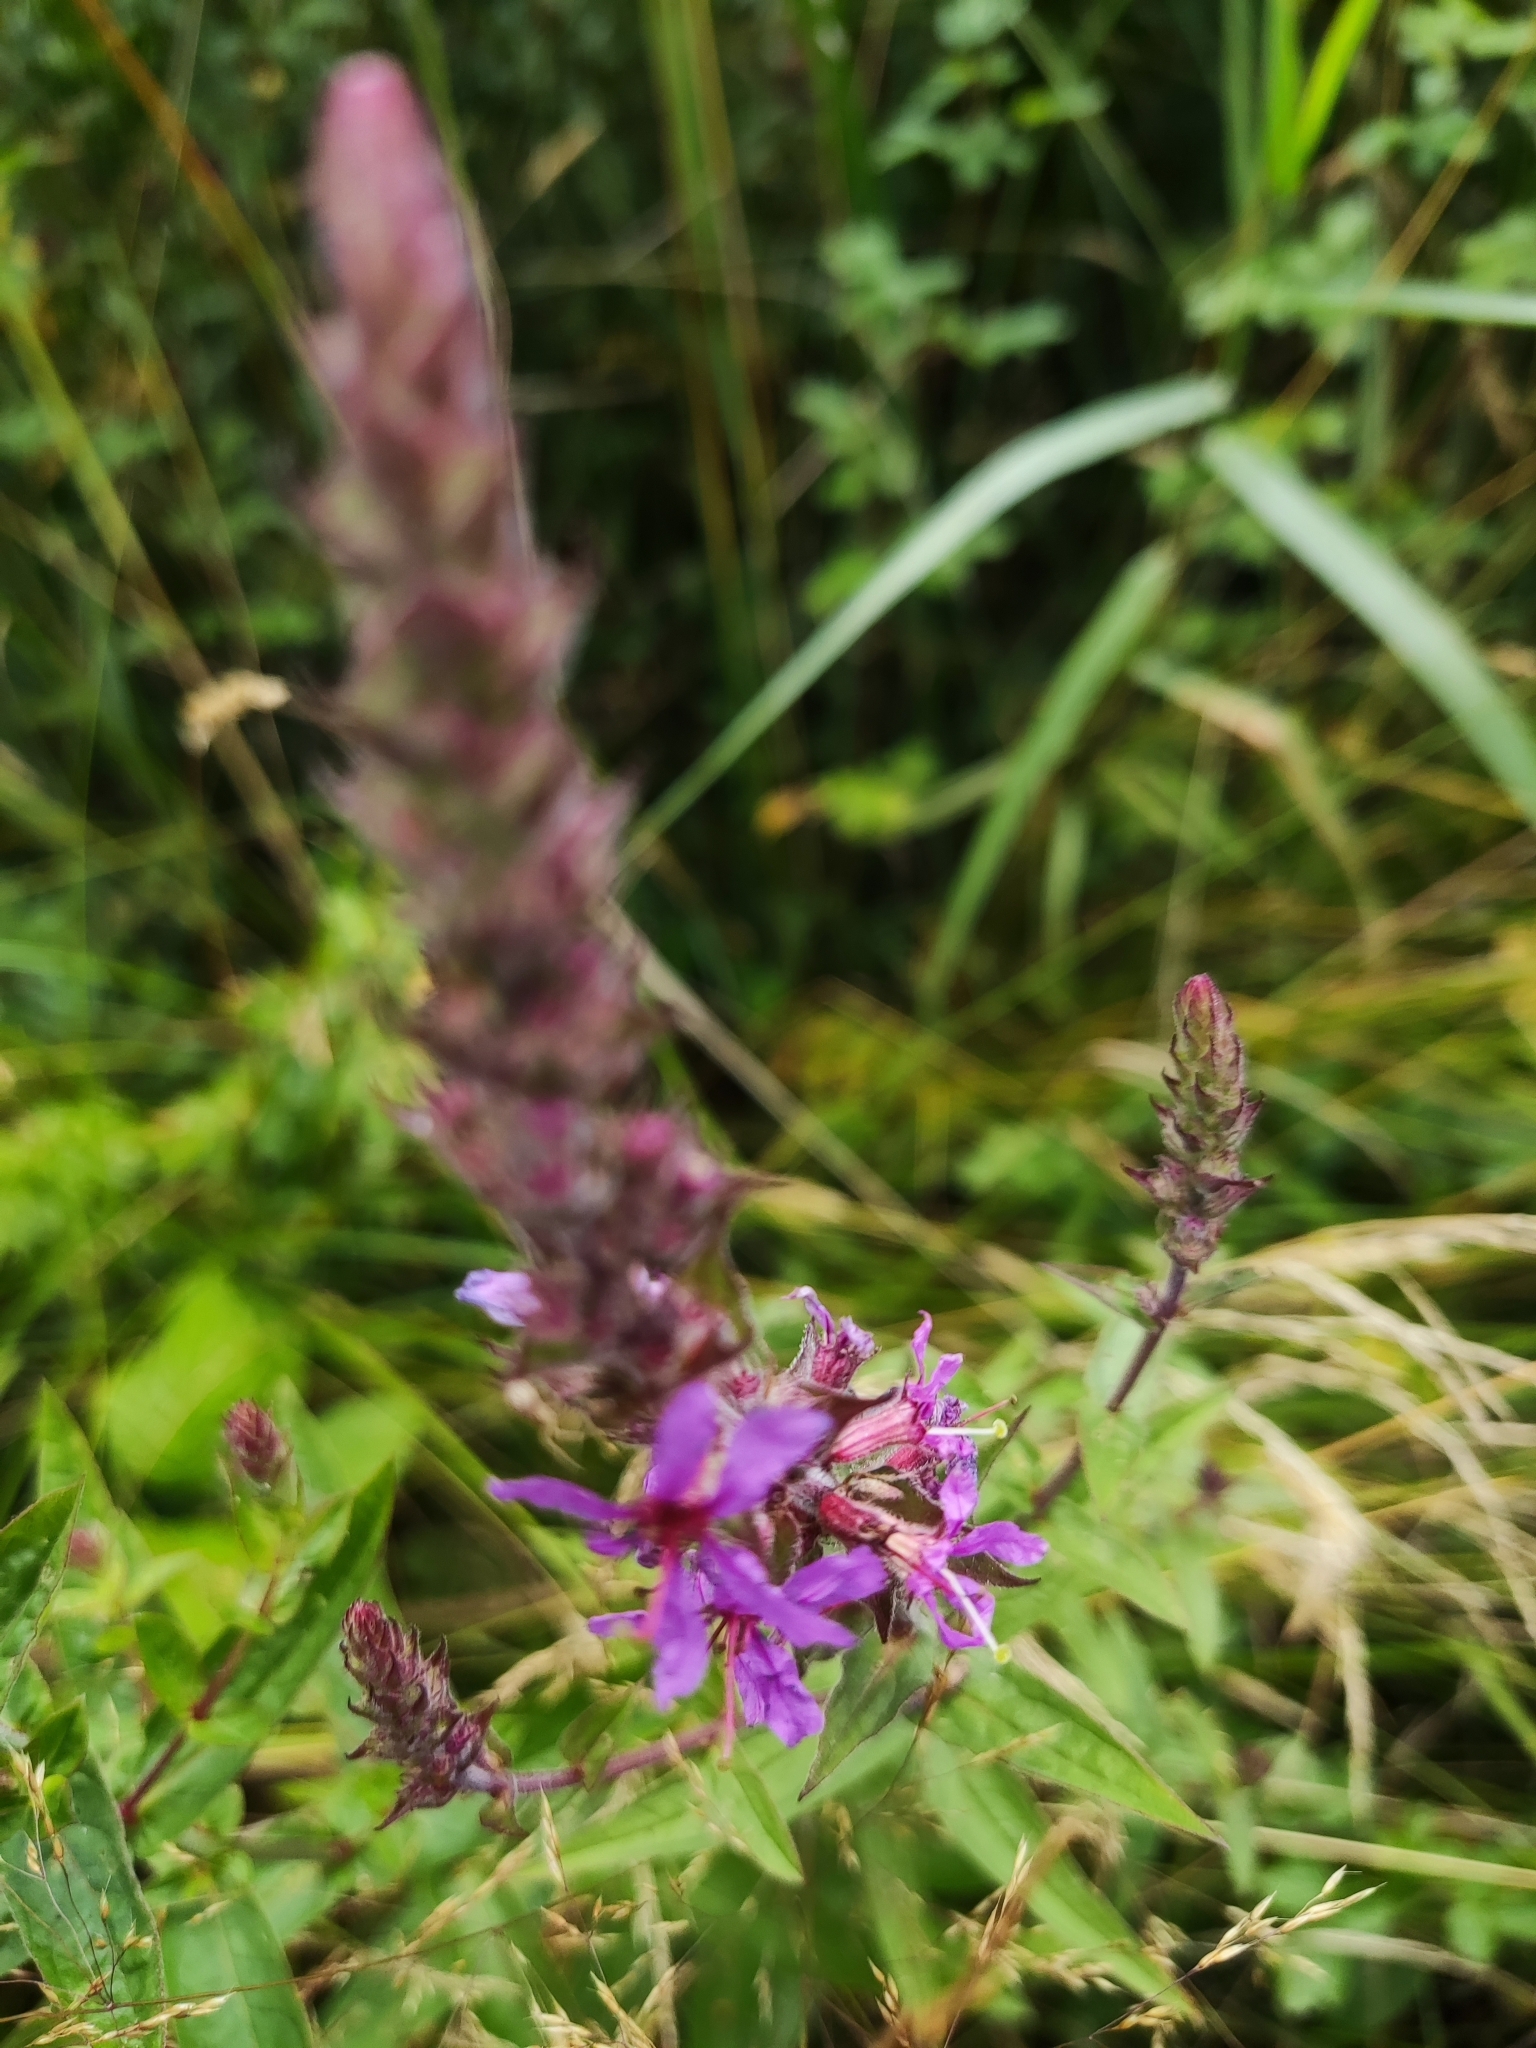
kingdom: Plantae
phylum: Tracheophyta
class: Magnoliopsida
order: Myrtales
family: Lythraceae
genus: Lythrum
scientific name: Lythrum salicaria
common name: Purple loosestrife
